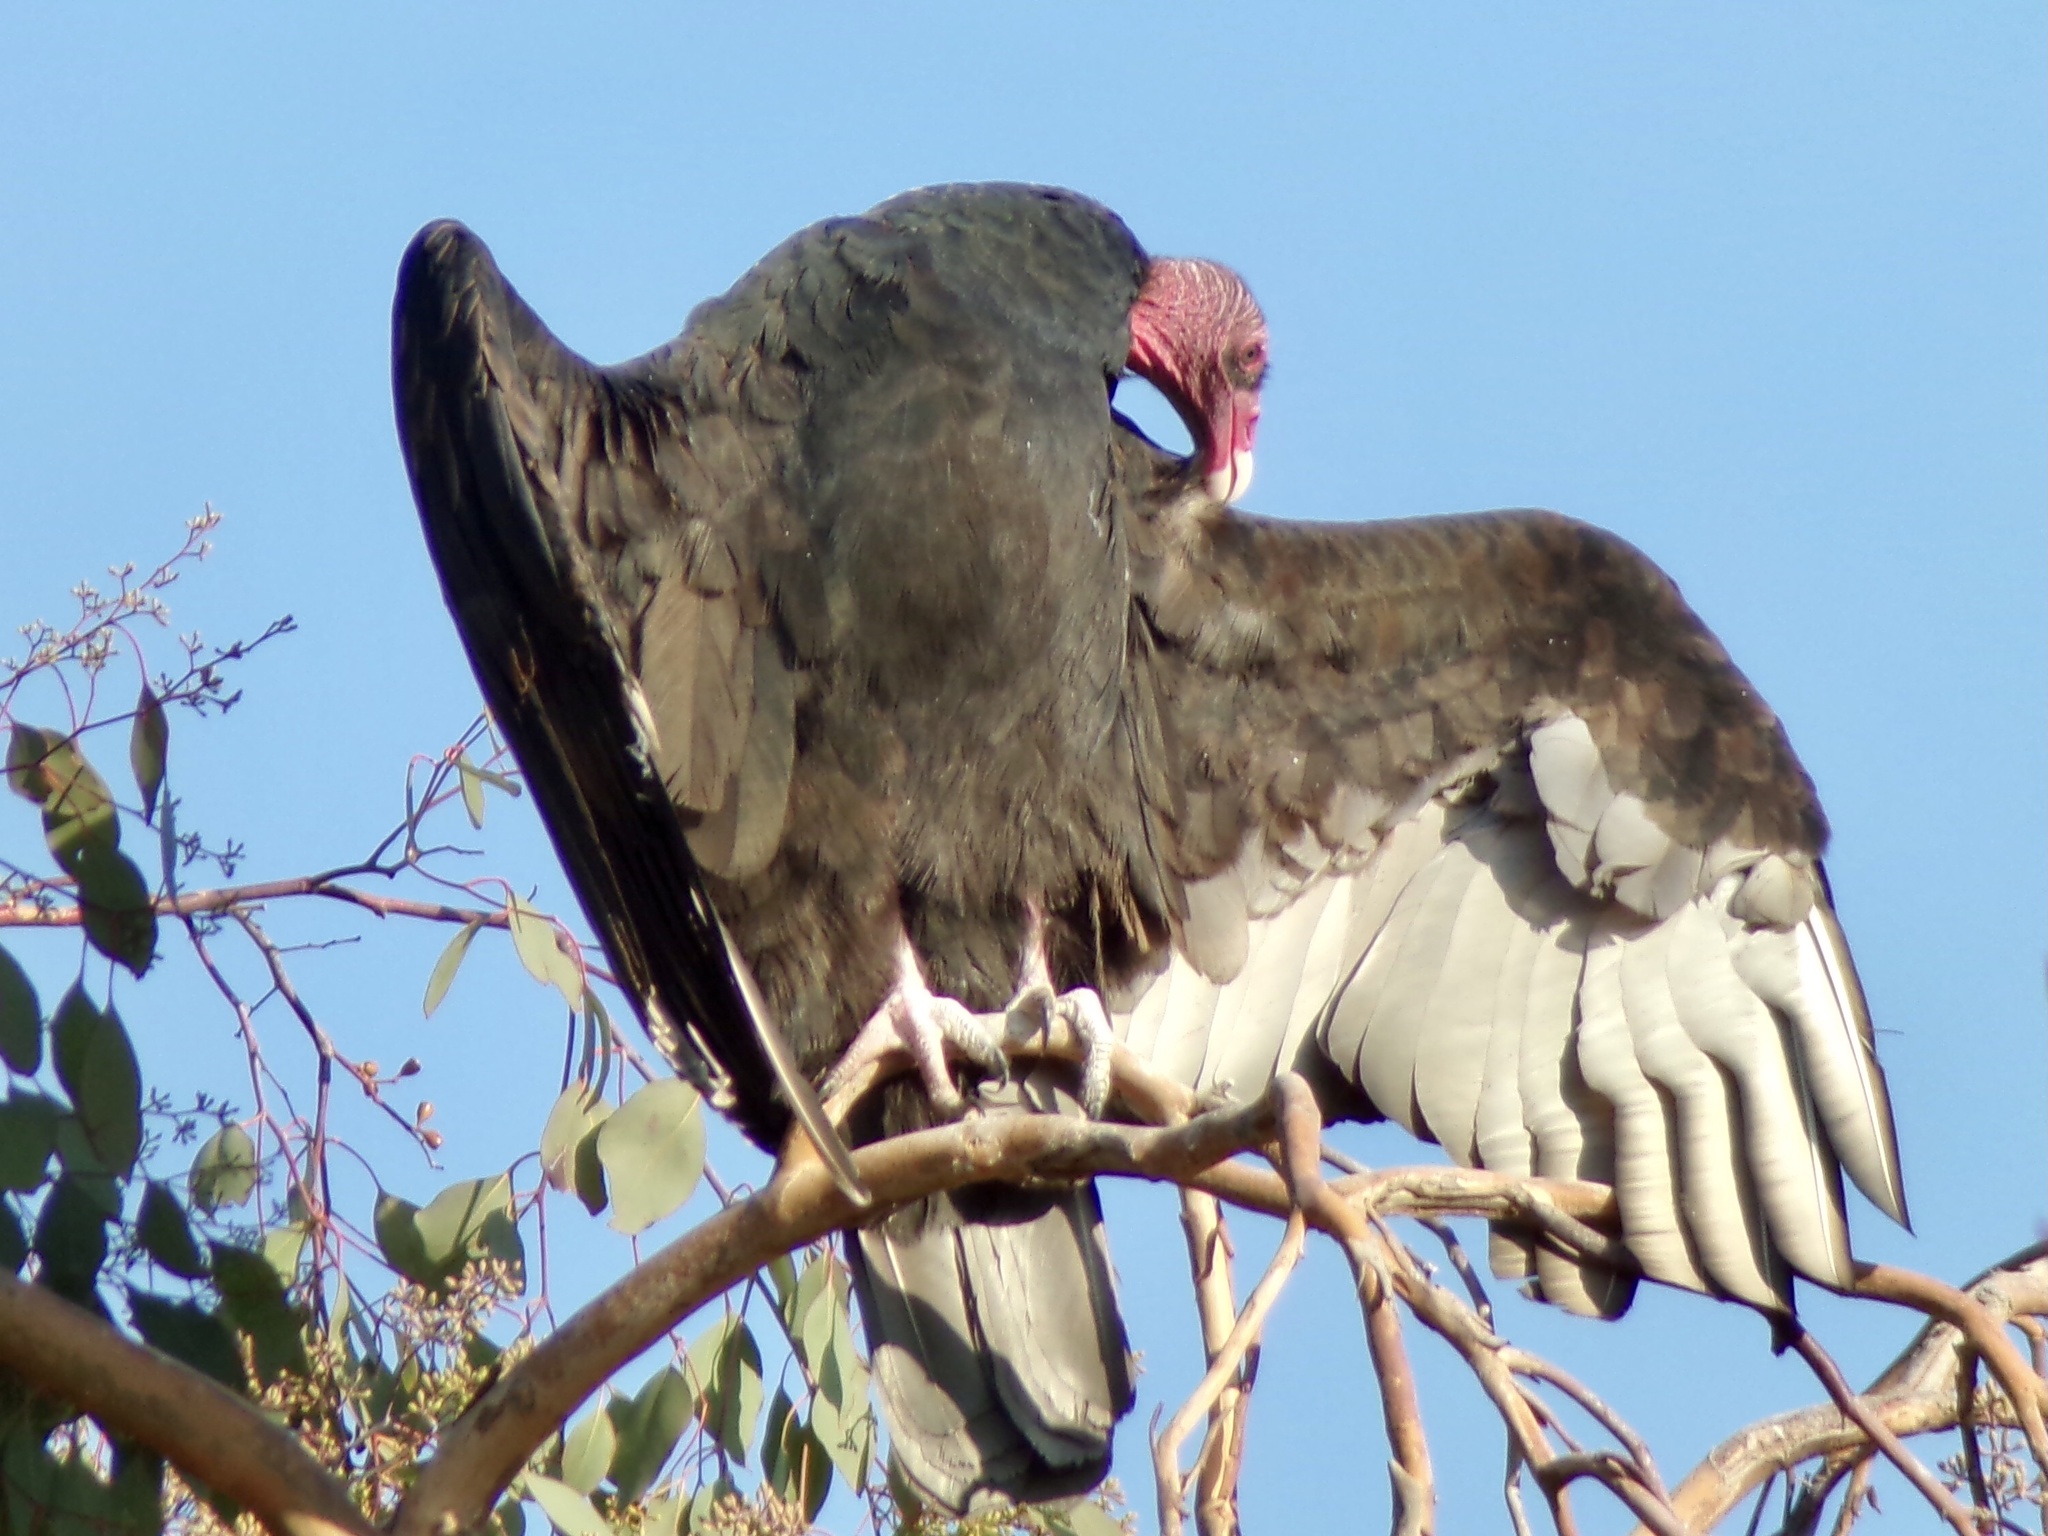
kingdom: Animalia
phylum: Chordata
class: Aves
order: Accipitriformes
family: Cathartidae
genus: Cathartes
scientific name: Cathartes aura
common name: Turkey vulture
